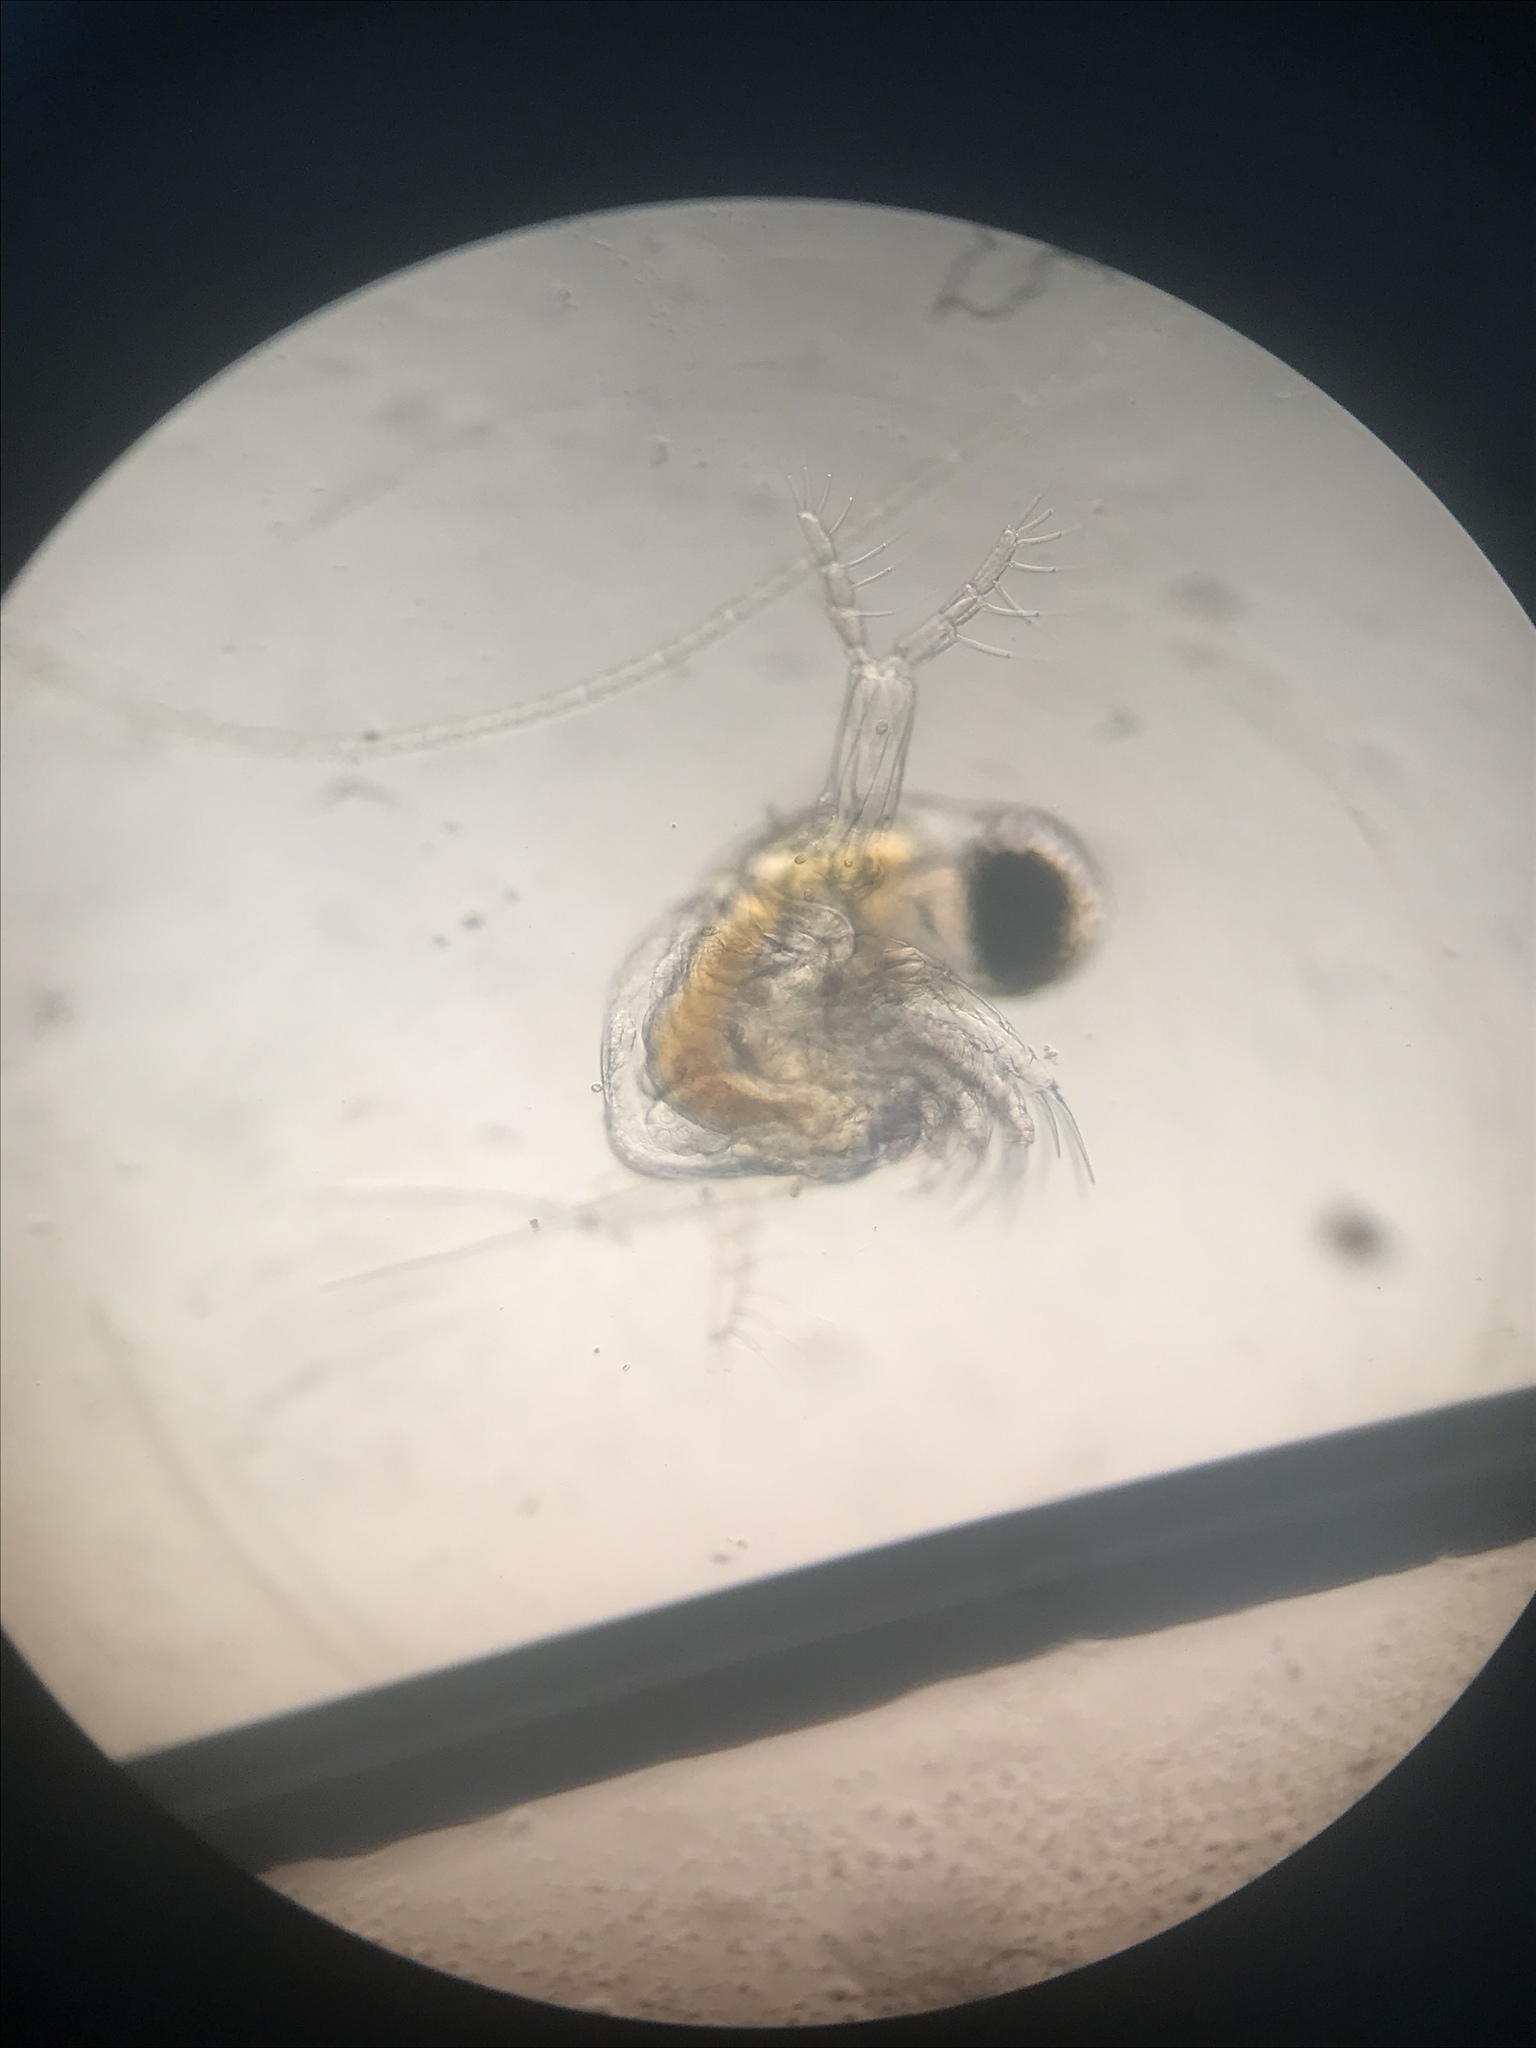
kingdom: Animalia
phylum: Arthropoda
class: Branchiopoda
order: Diplostraca
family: Polyphemidae
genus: Polyphemus
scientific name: Polyphemus pediculus
